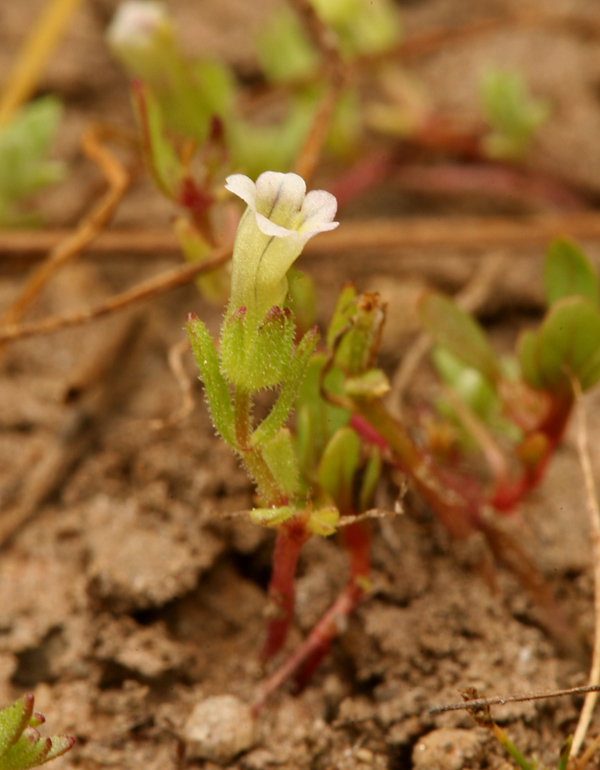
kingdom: Plantae
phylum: Tracheophyta
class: Magnoliopsida
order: Lamiales
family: Plantaginaceae
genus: Gratiola
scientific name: Gratiola ebracteata
